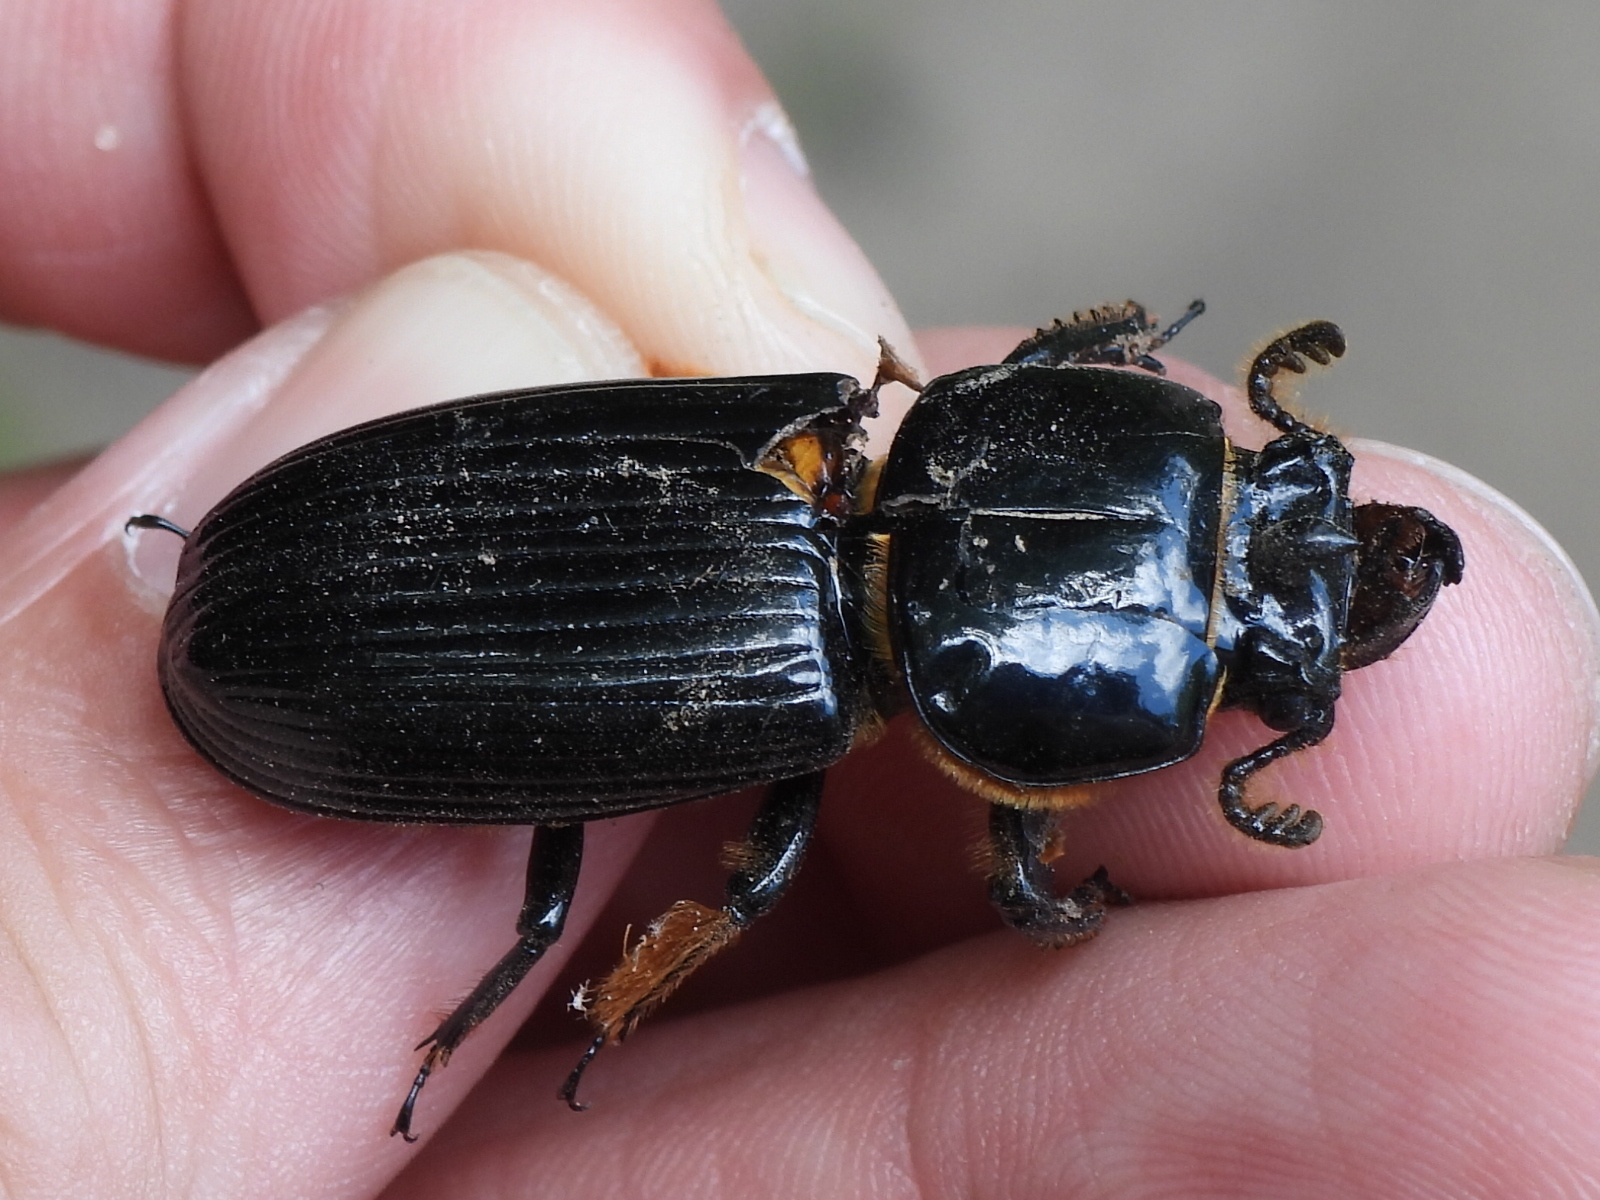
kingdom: Animalia
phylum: Arthropoda
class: Insecta
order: Coleoptera
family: Passalidae
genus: Odontotaenius
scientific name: Odontotaenius disjunctus
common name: Patent leather beetle
